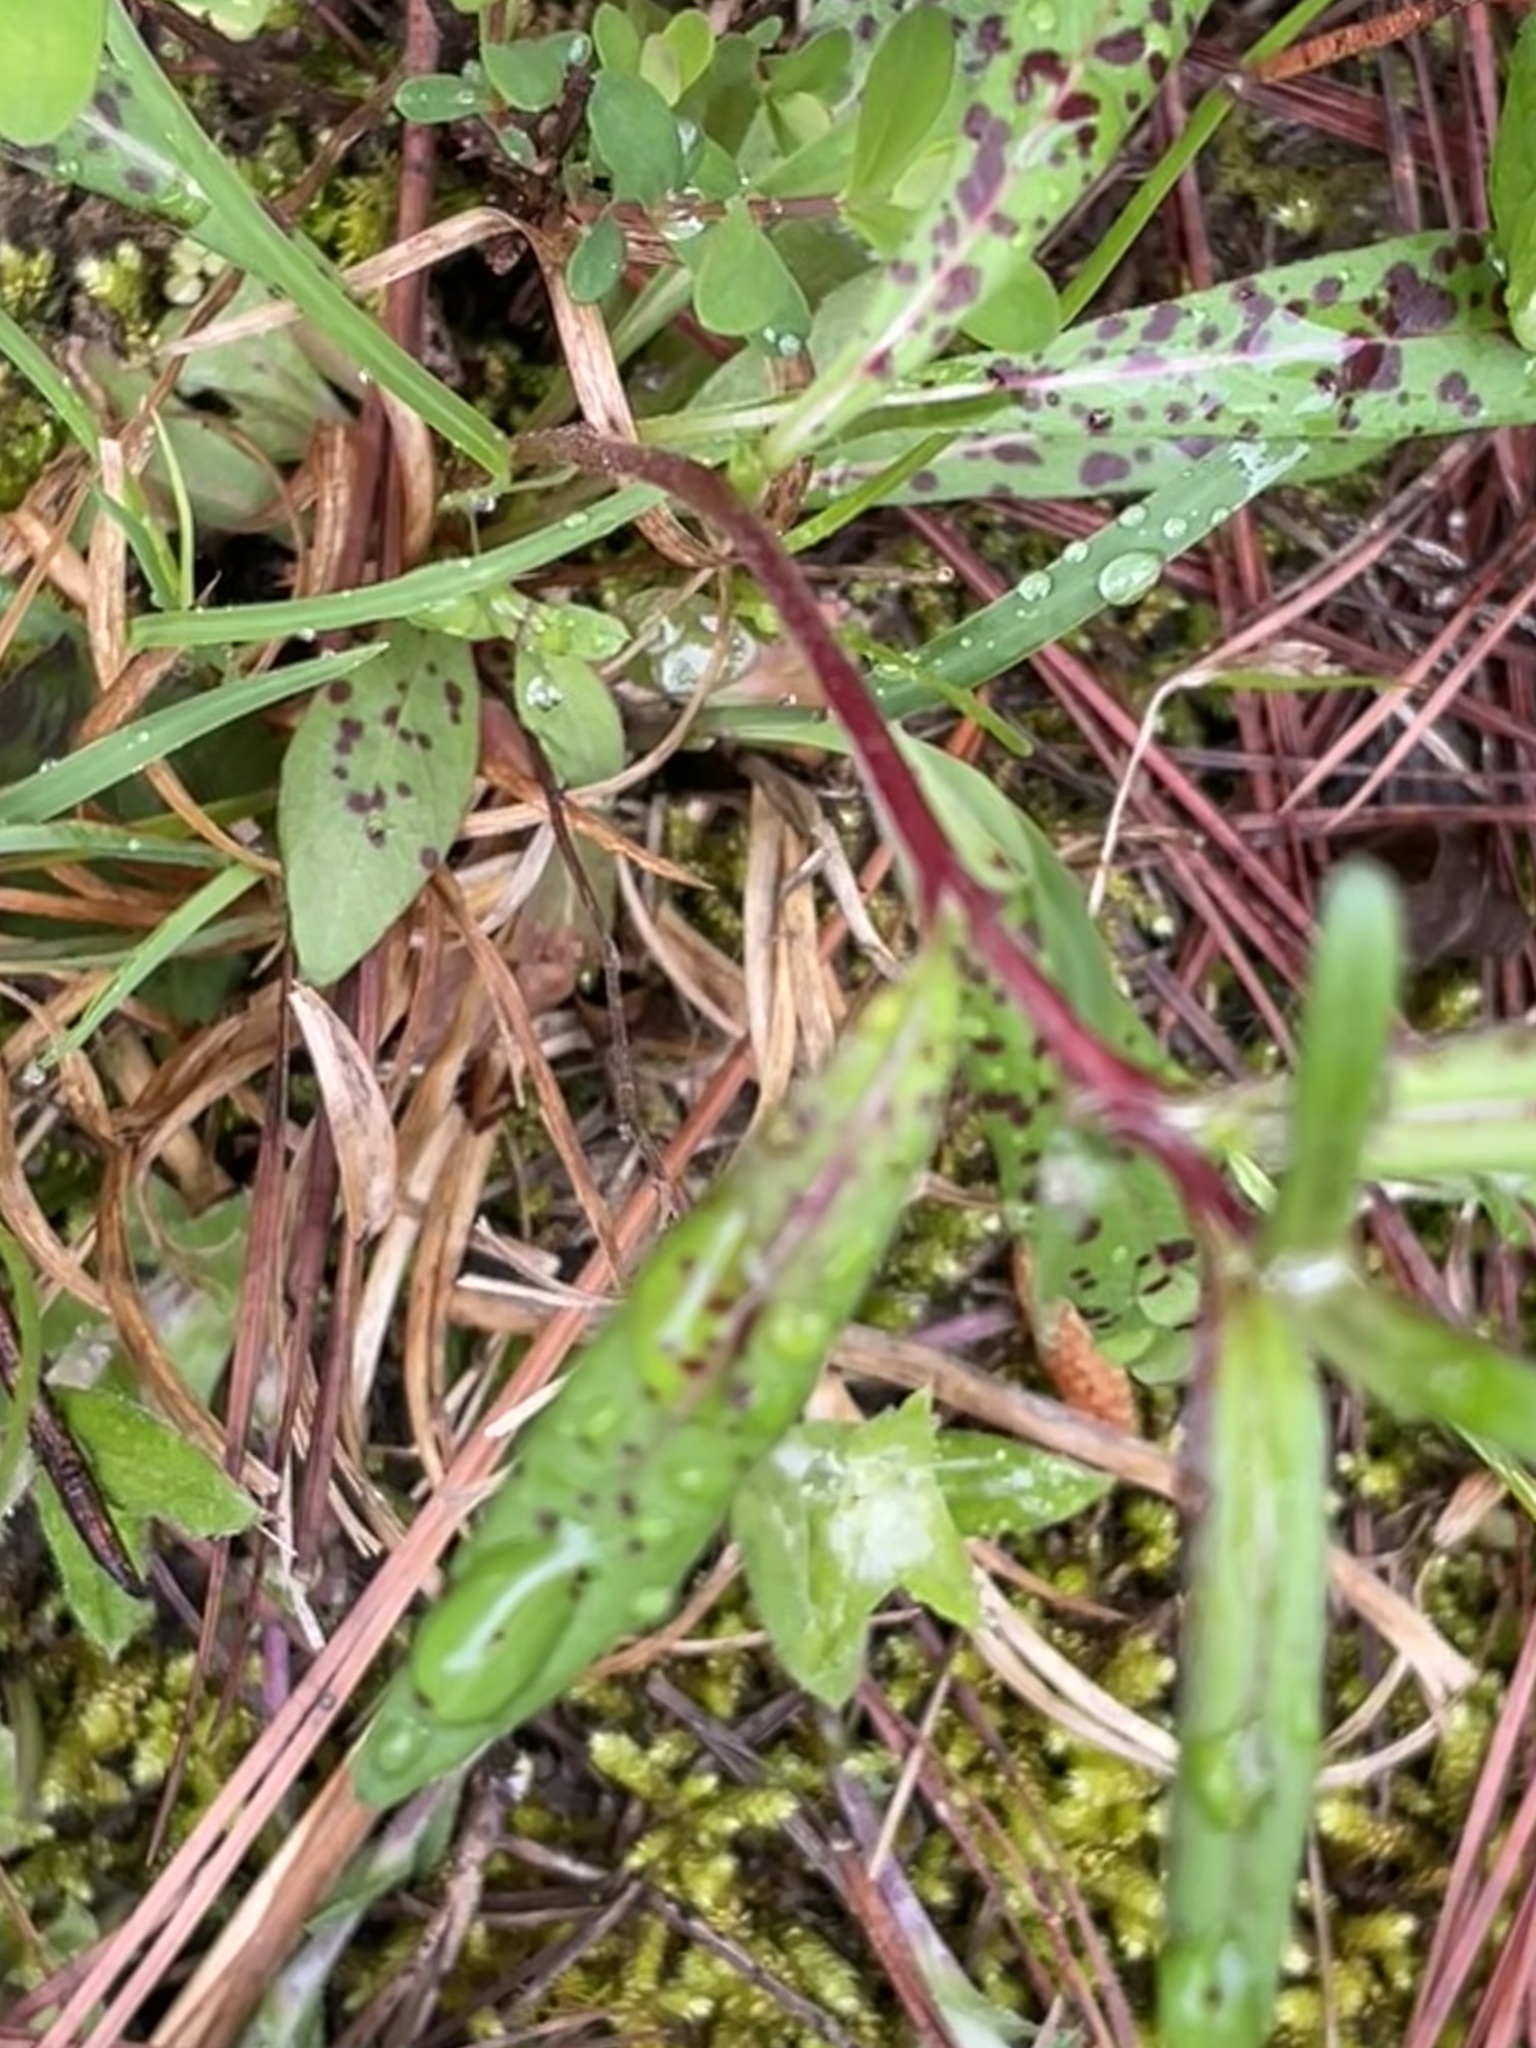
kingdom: Plantae
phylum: Tracheophyta
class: Magnoliopsida
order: Myrtales
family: Onagraceae
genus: Oenothera
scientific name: Oenothera fruticosa
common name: Southern sundrops
